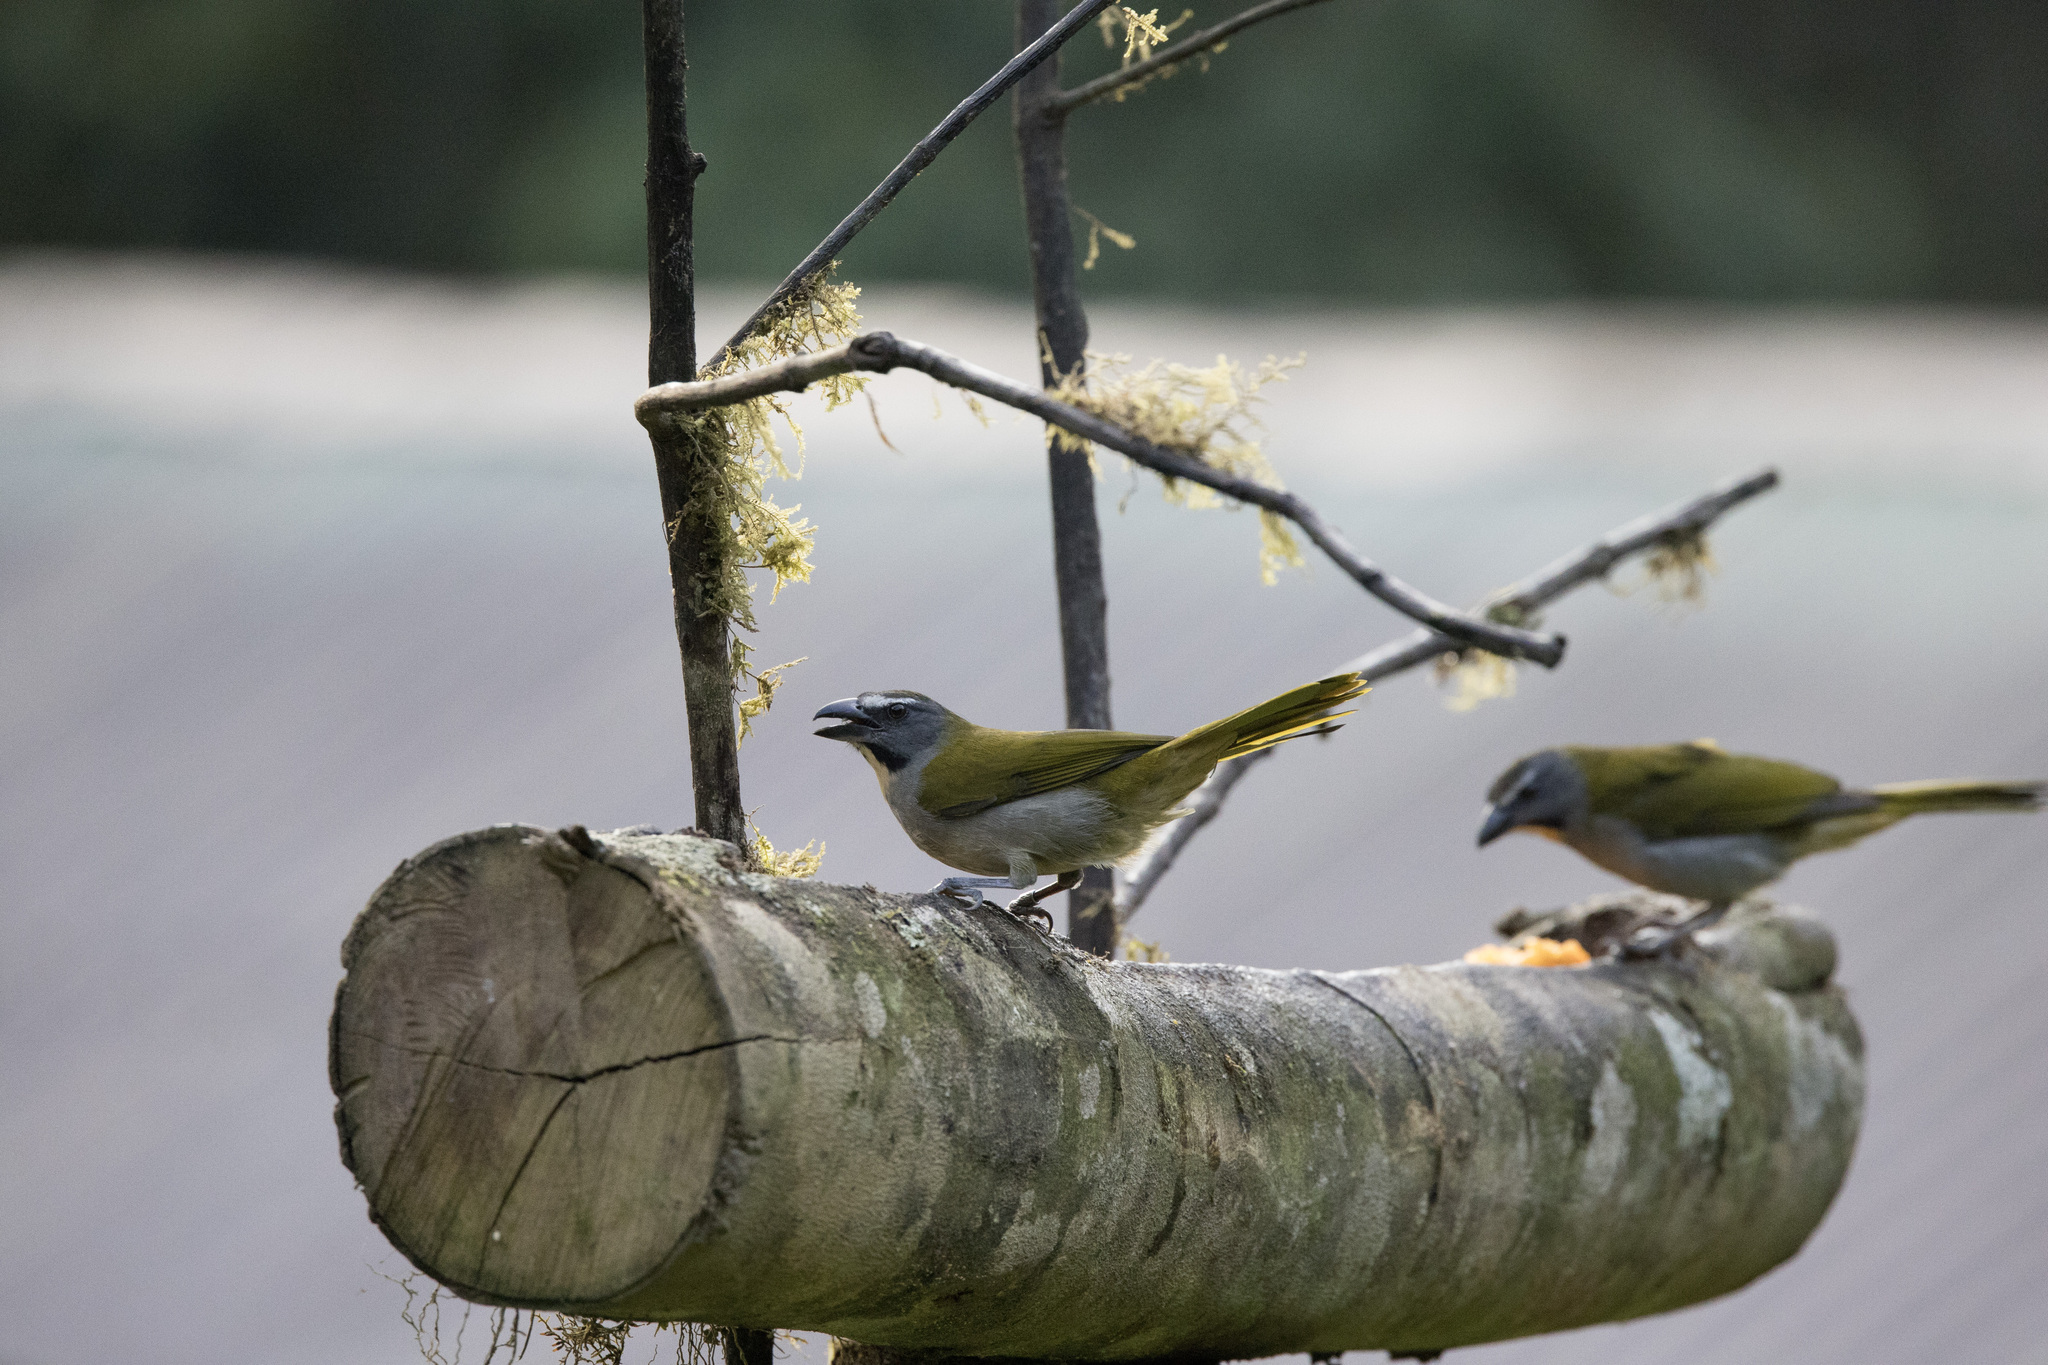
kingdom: Animalia
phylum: Chordata
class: Aves
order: Passeriformes
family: Thraupidae
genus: Saltator
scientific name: Saltator maximus
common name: Buff-throated saltator
